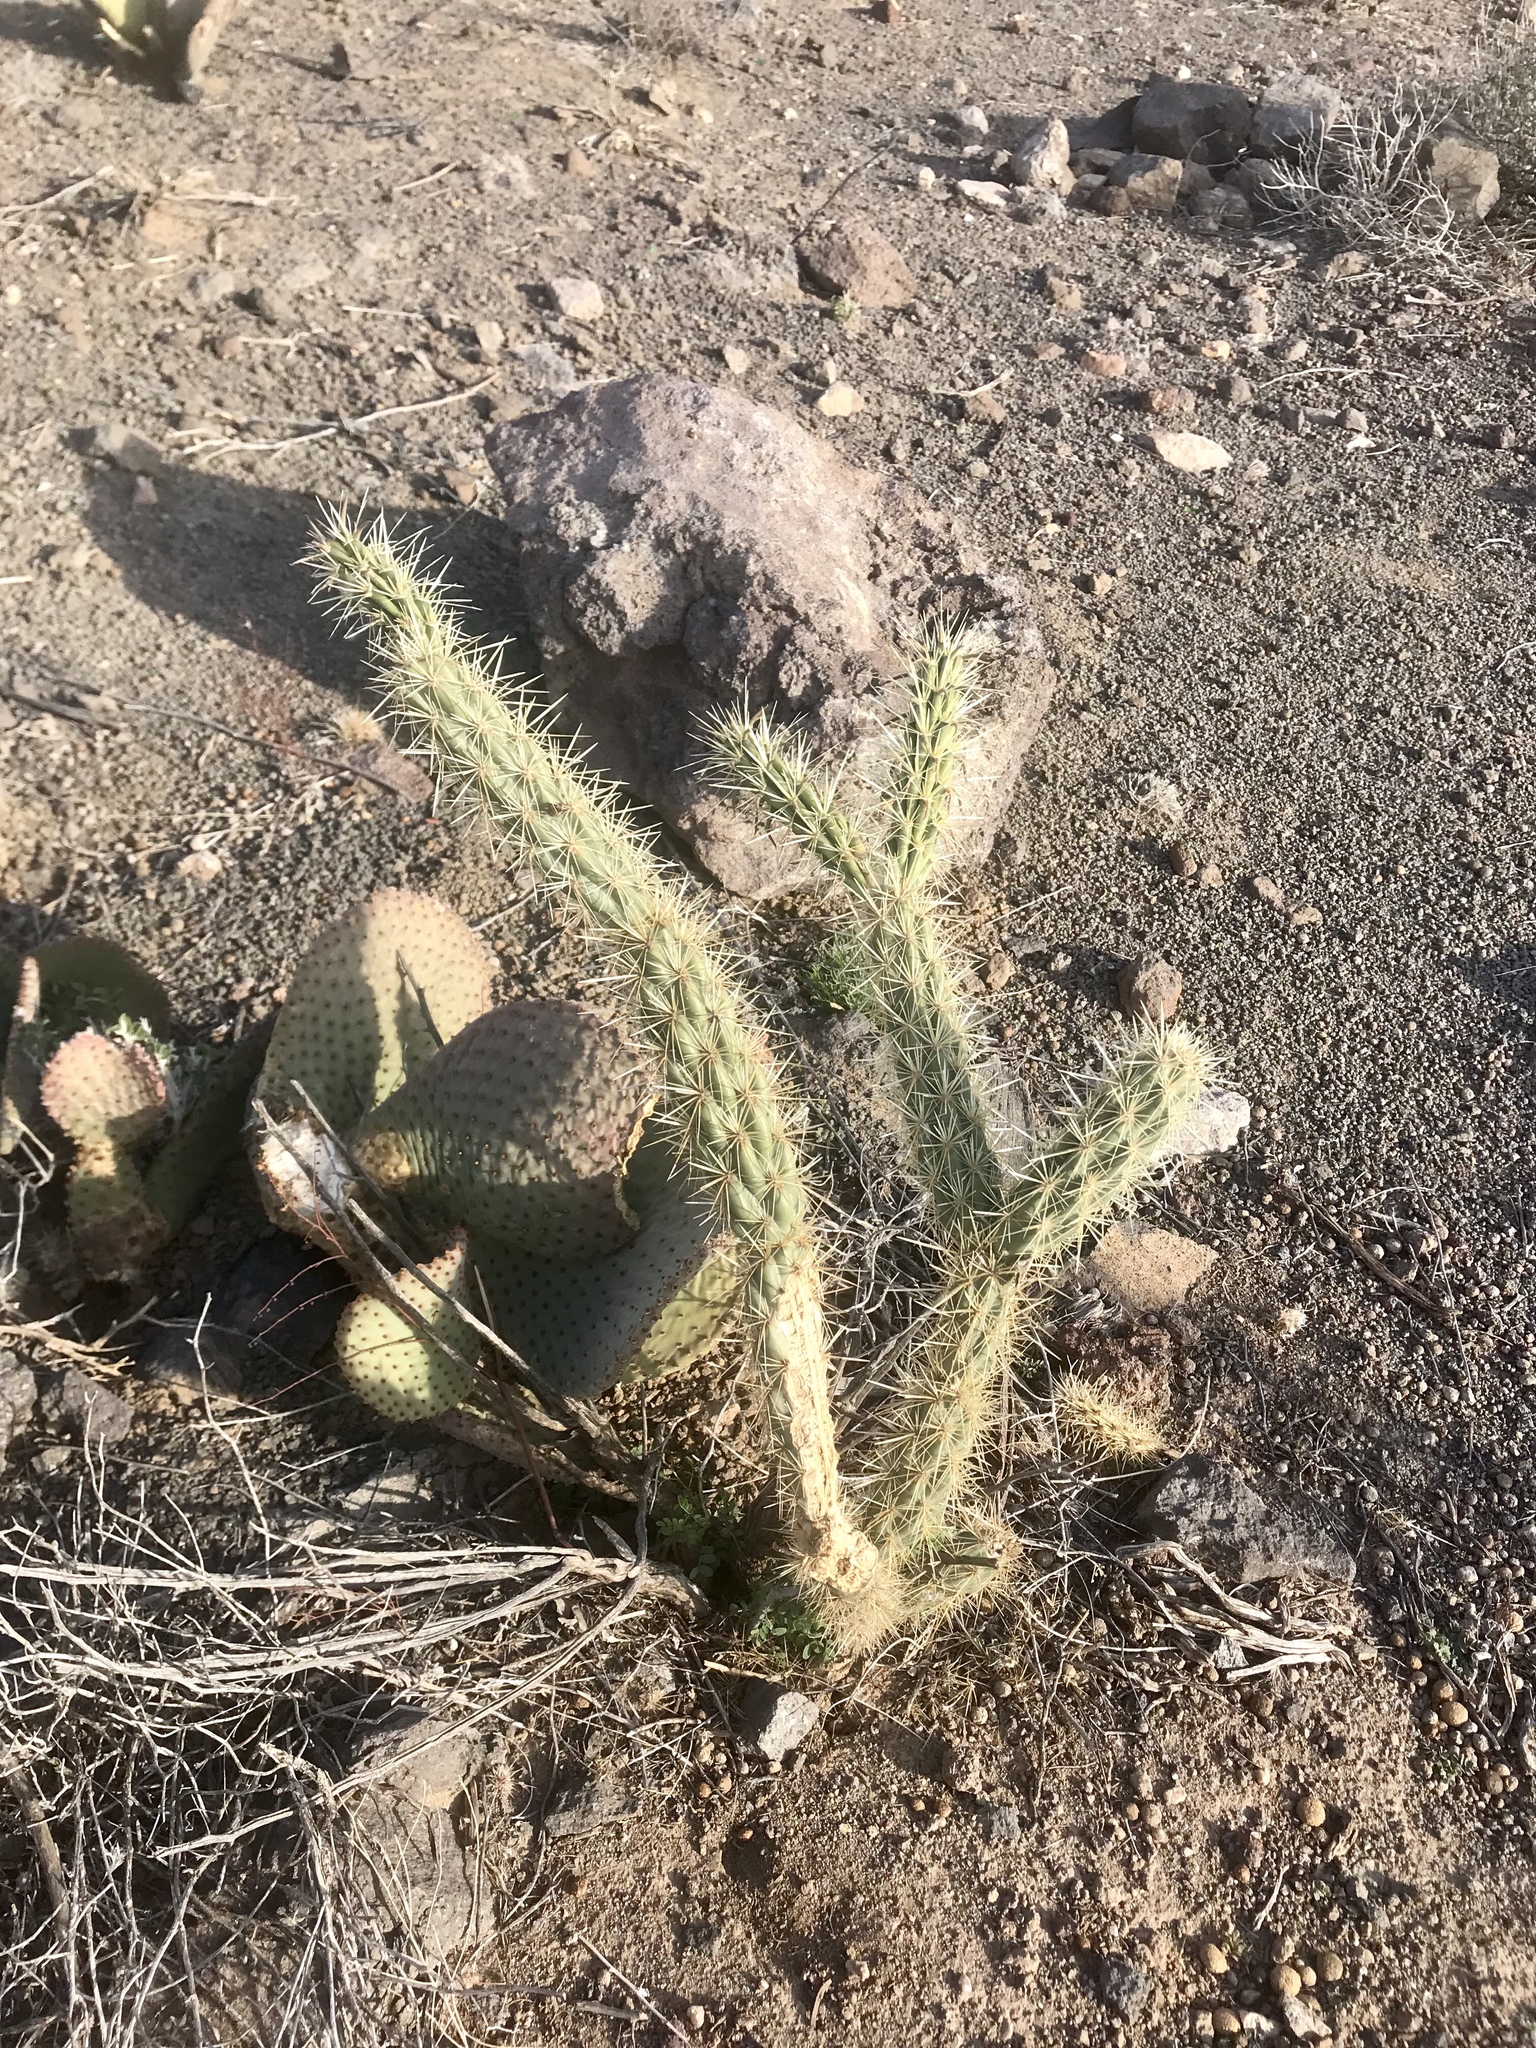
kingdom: Plantae
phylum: Tracheophyta
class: Magnoliopsida
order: Caryophyllales
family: Cactaceae
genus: Cylindropuntia
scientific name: Cylindropuntia acanthocarpa
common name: Buckhorn cholla
